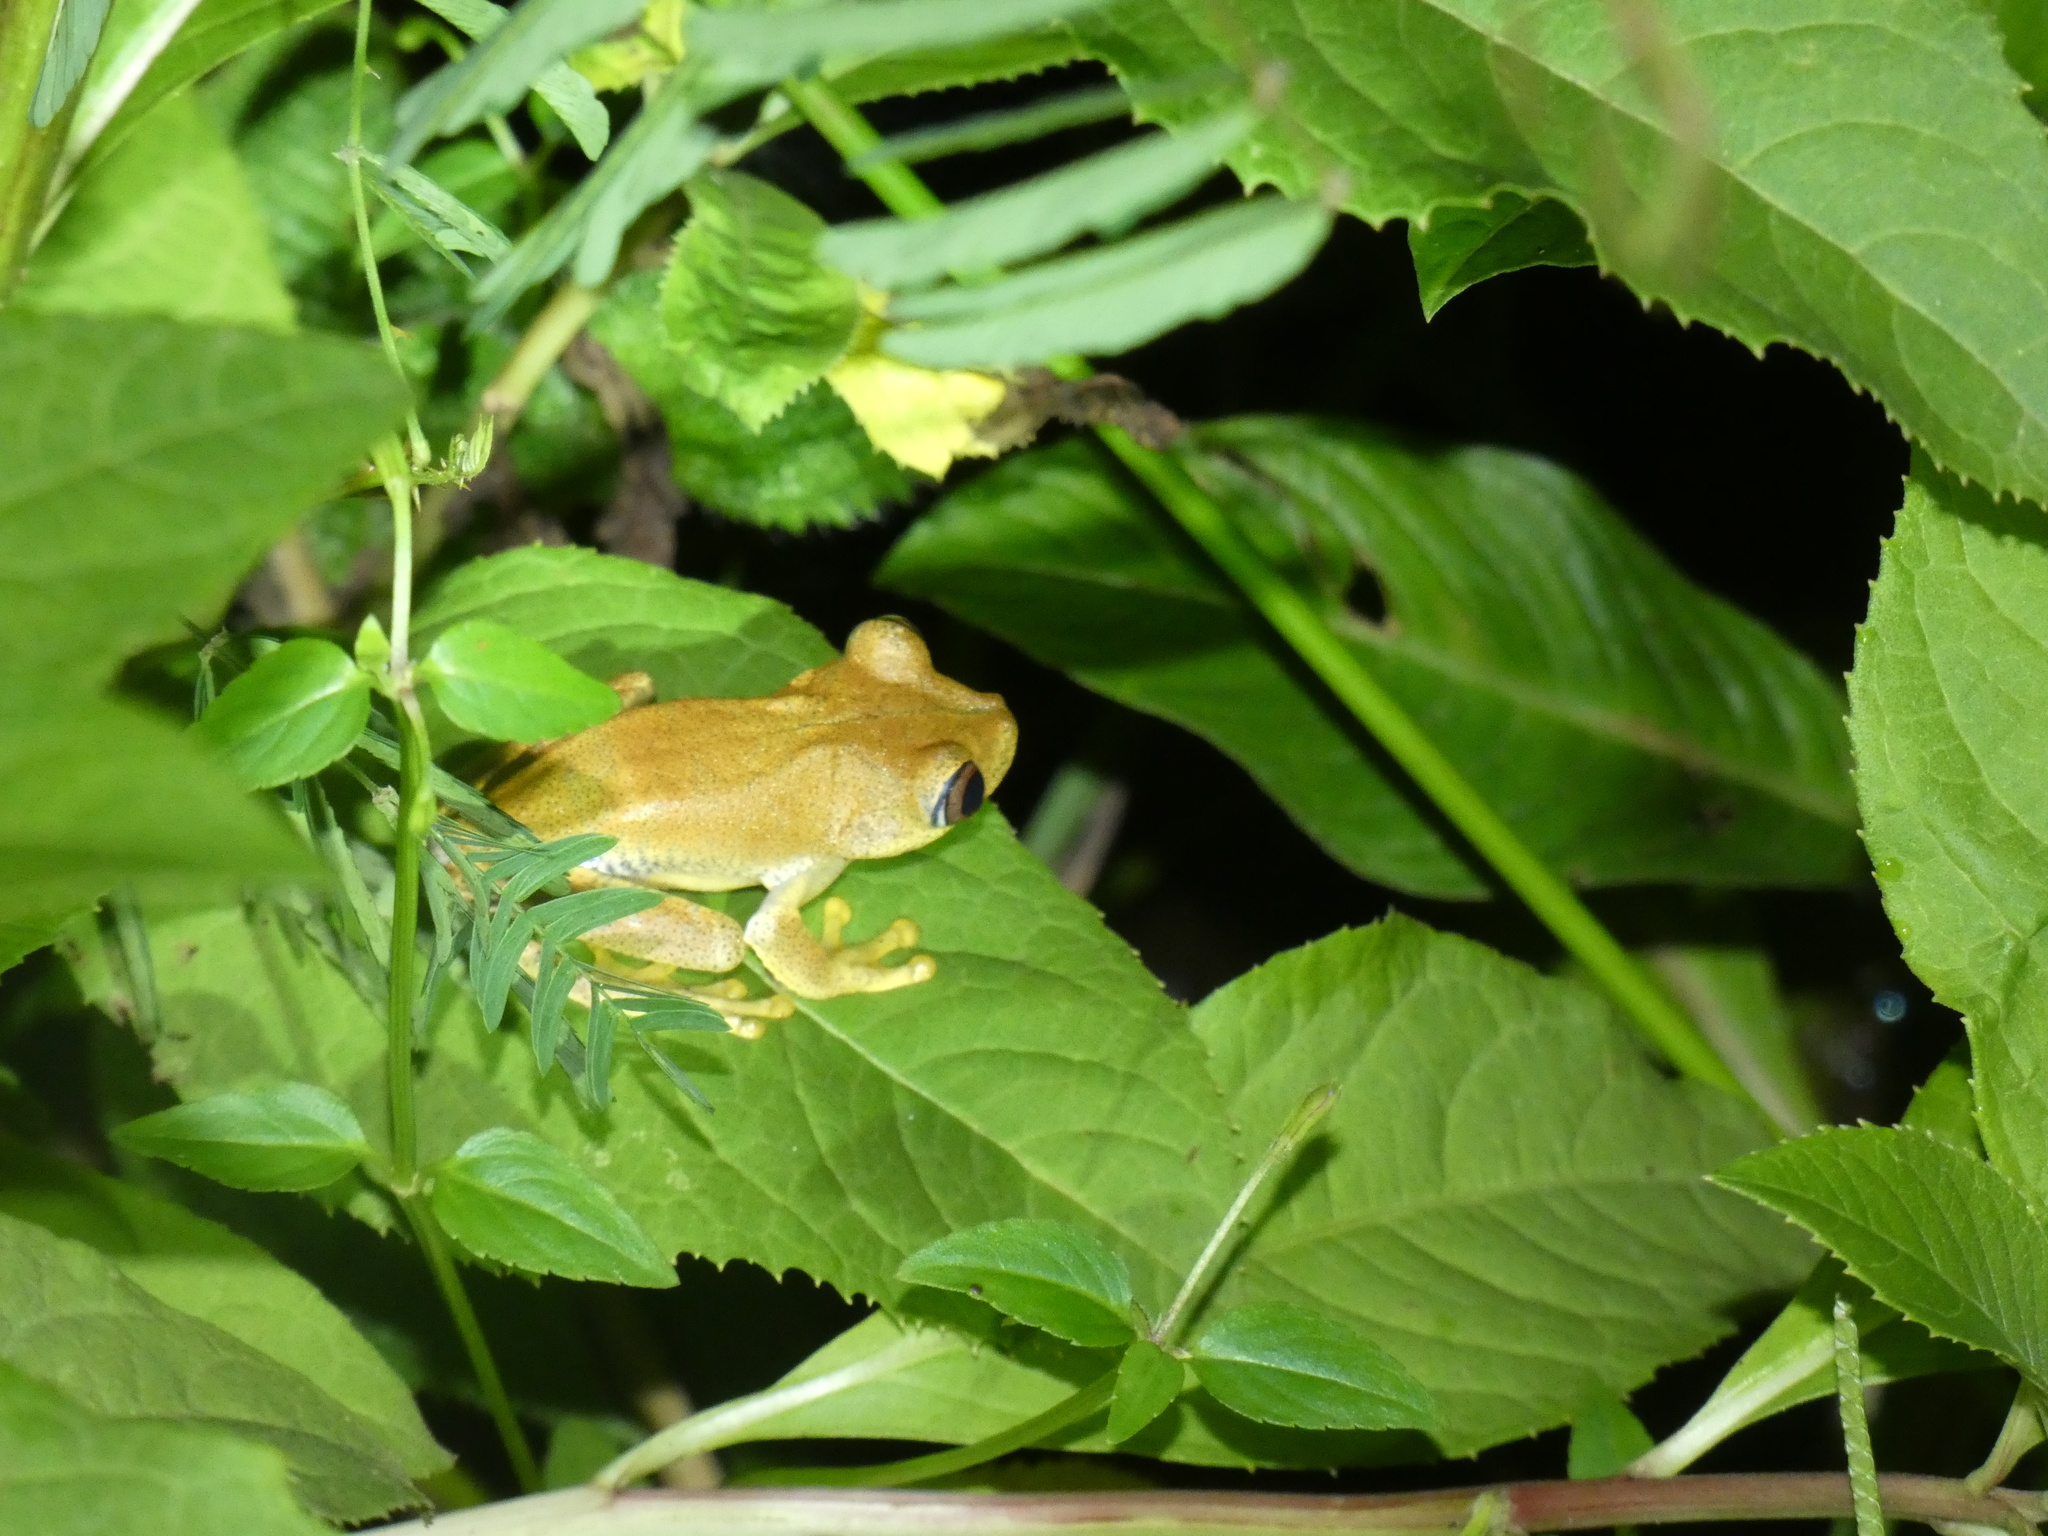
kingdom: Animalia
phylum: Chordata
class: Amphibia
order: Anura
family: Hylidae
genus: Boana
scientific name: Boana semilineata
